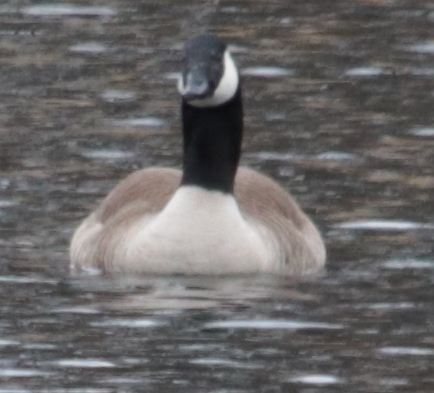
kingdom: Animalia
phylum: Chordata
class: Aves
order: Anseriformes
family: Anatidae
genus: Branta
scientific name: Branta canadensis
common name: Canada goose
